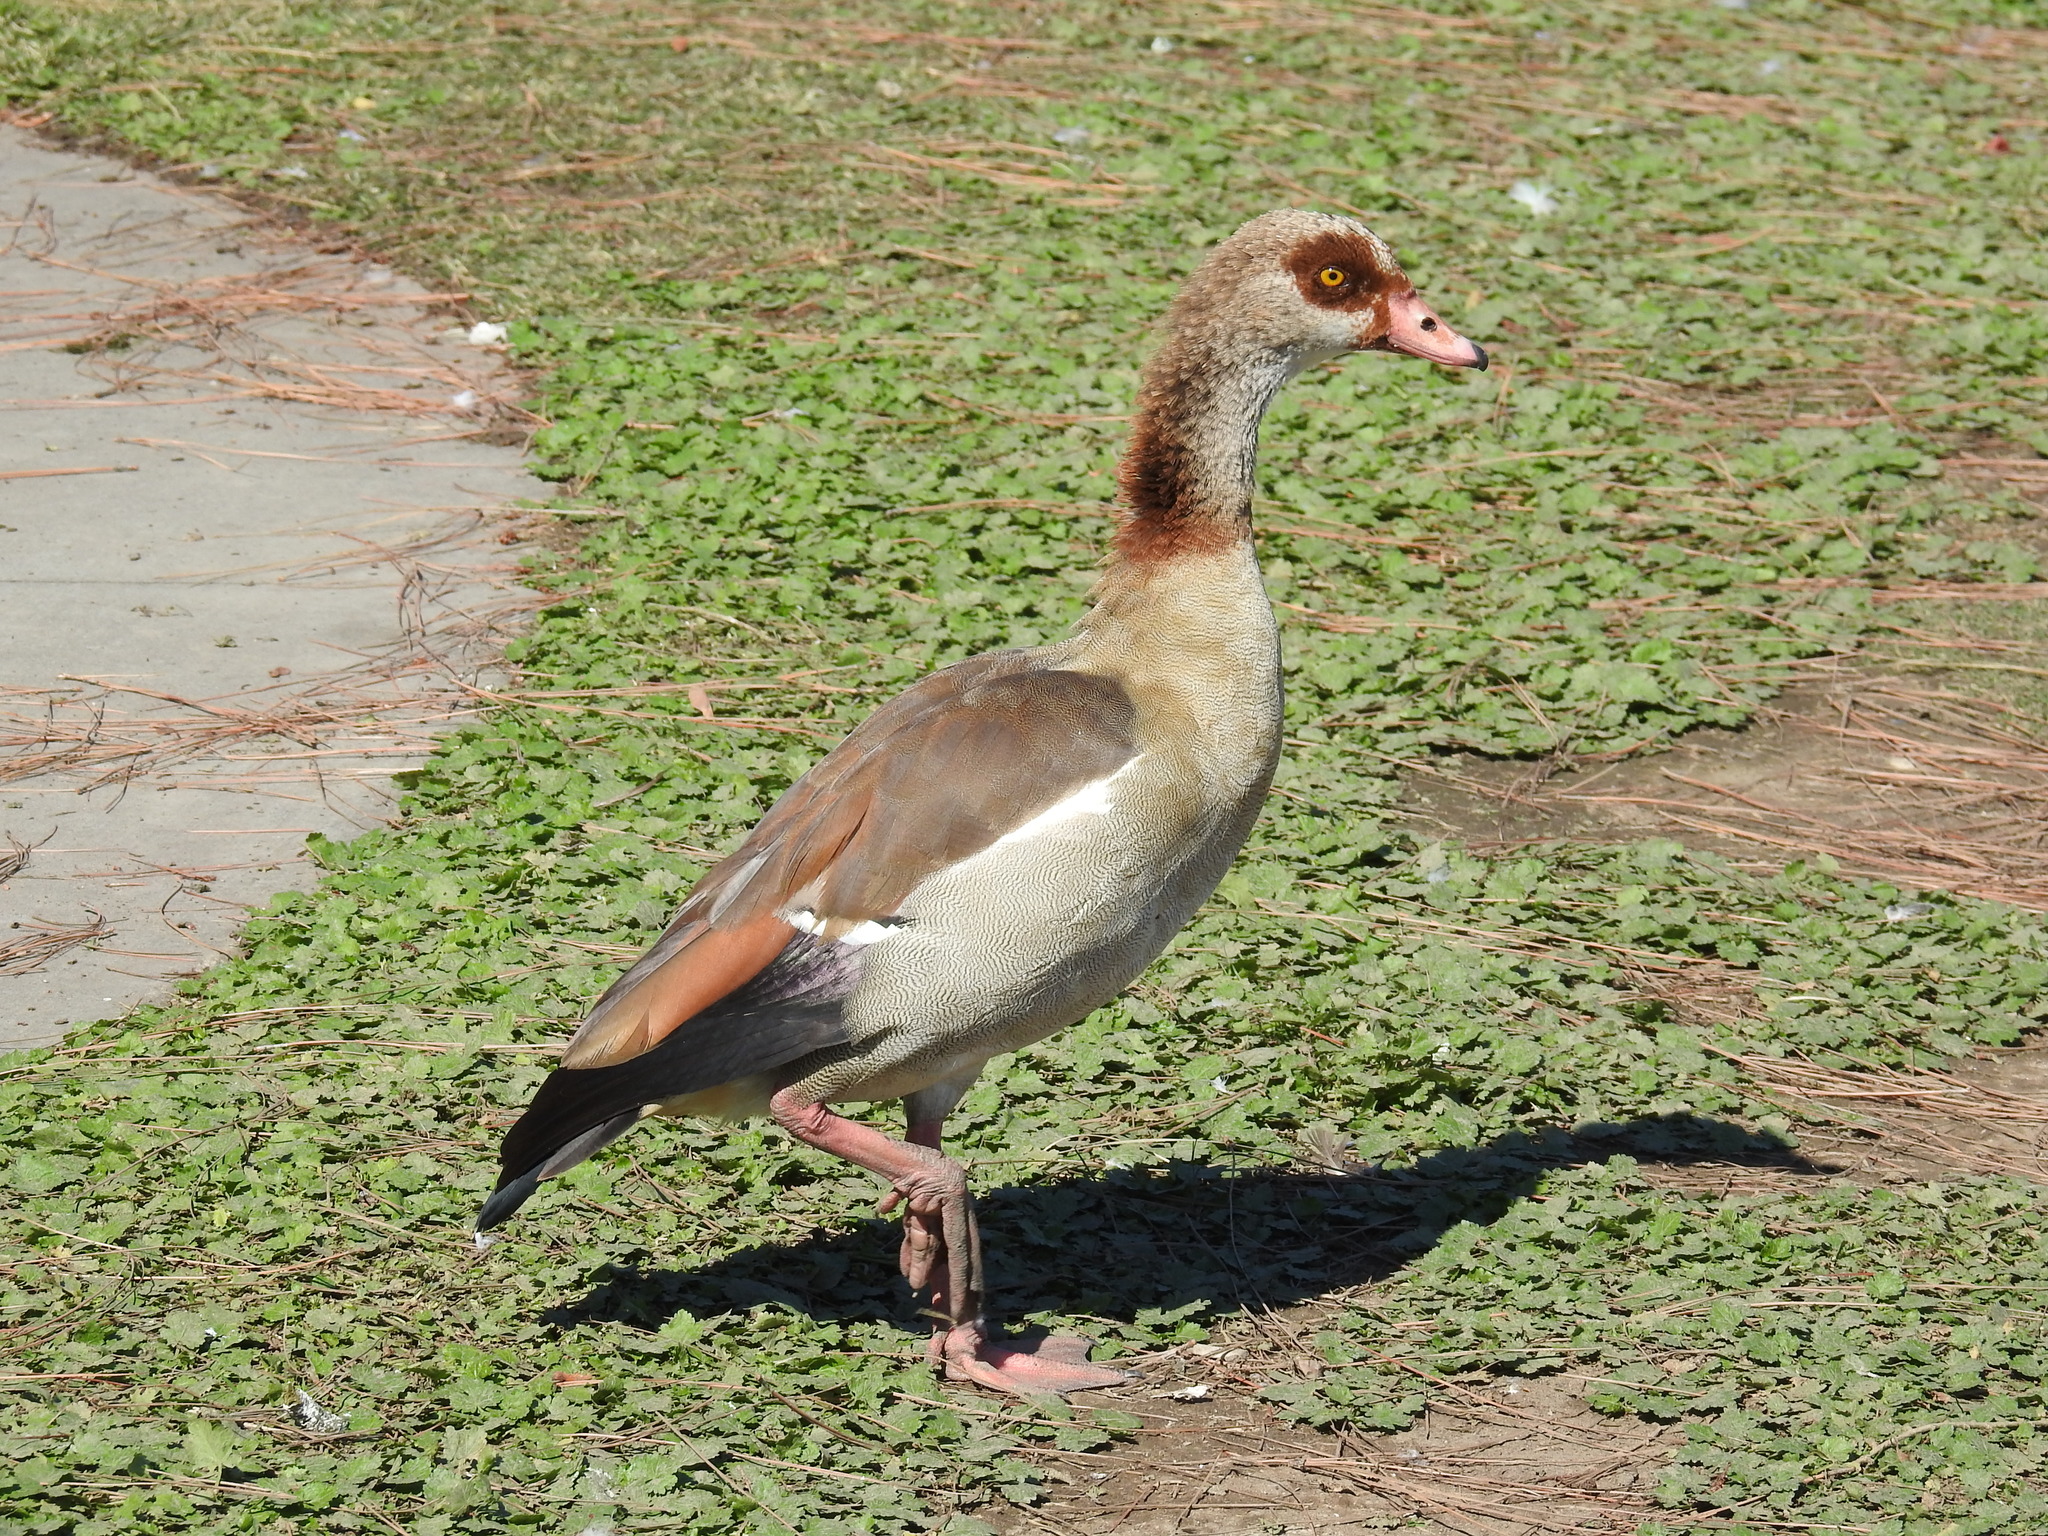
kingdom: Animalia
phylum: Chordata
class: Aves
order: Anseriformes
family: Anatidae
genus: Alopochen
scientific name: Alopochen aegyptiaca
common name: Egyptian goose
